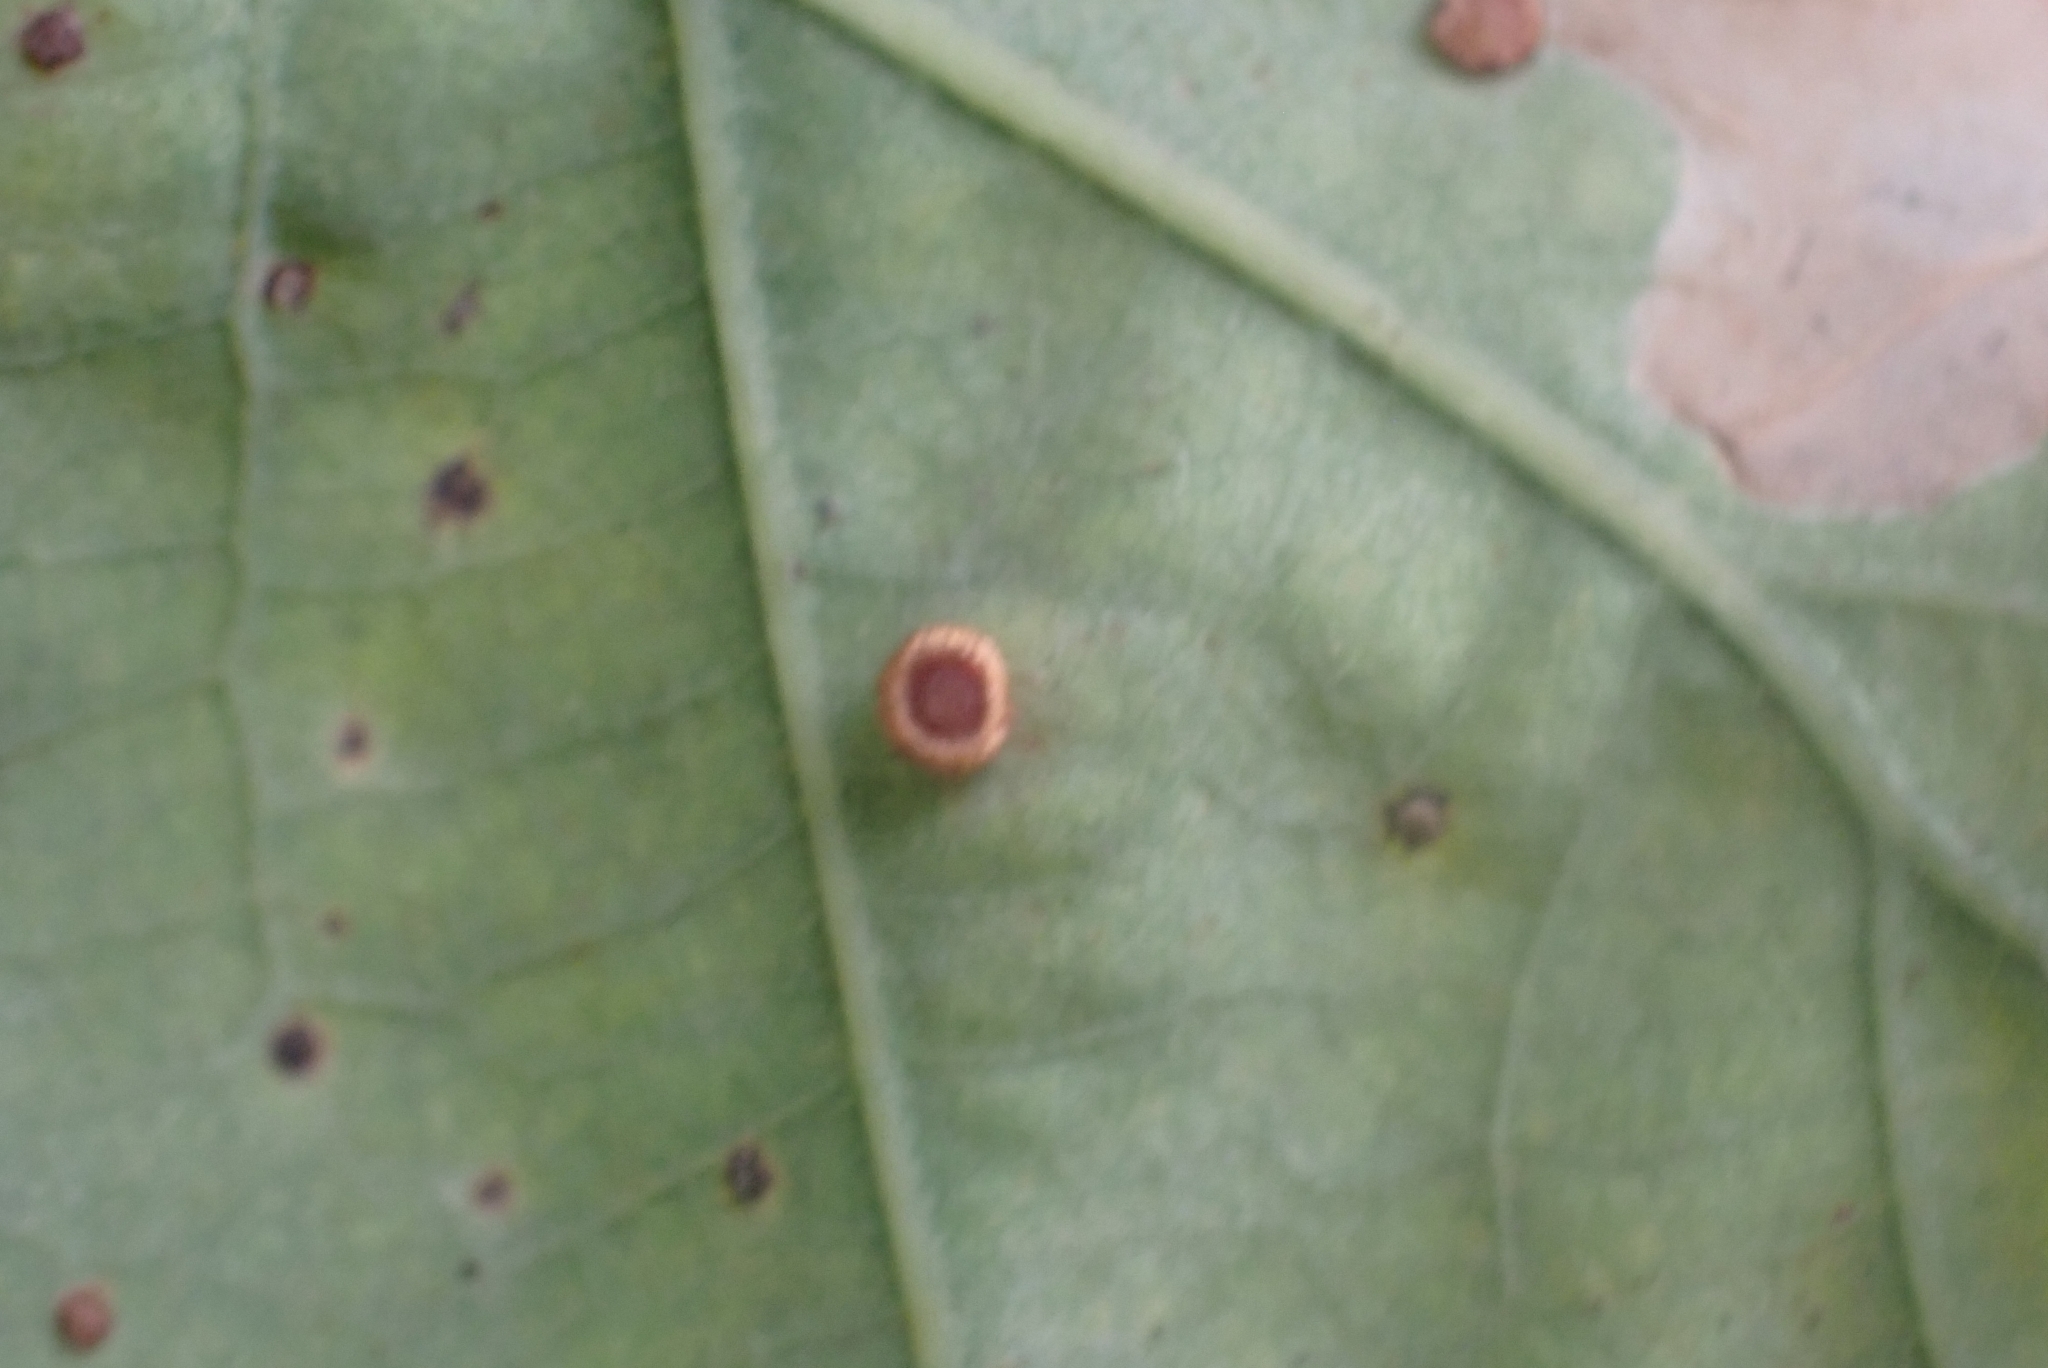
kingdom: Animalia
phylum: Arthropoda
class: Insecta
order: Hymenoptera
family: Cynipidae
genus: Neuroterus
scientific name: Neuroterus numismalis
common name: Silk-button spangle gall
